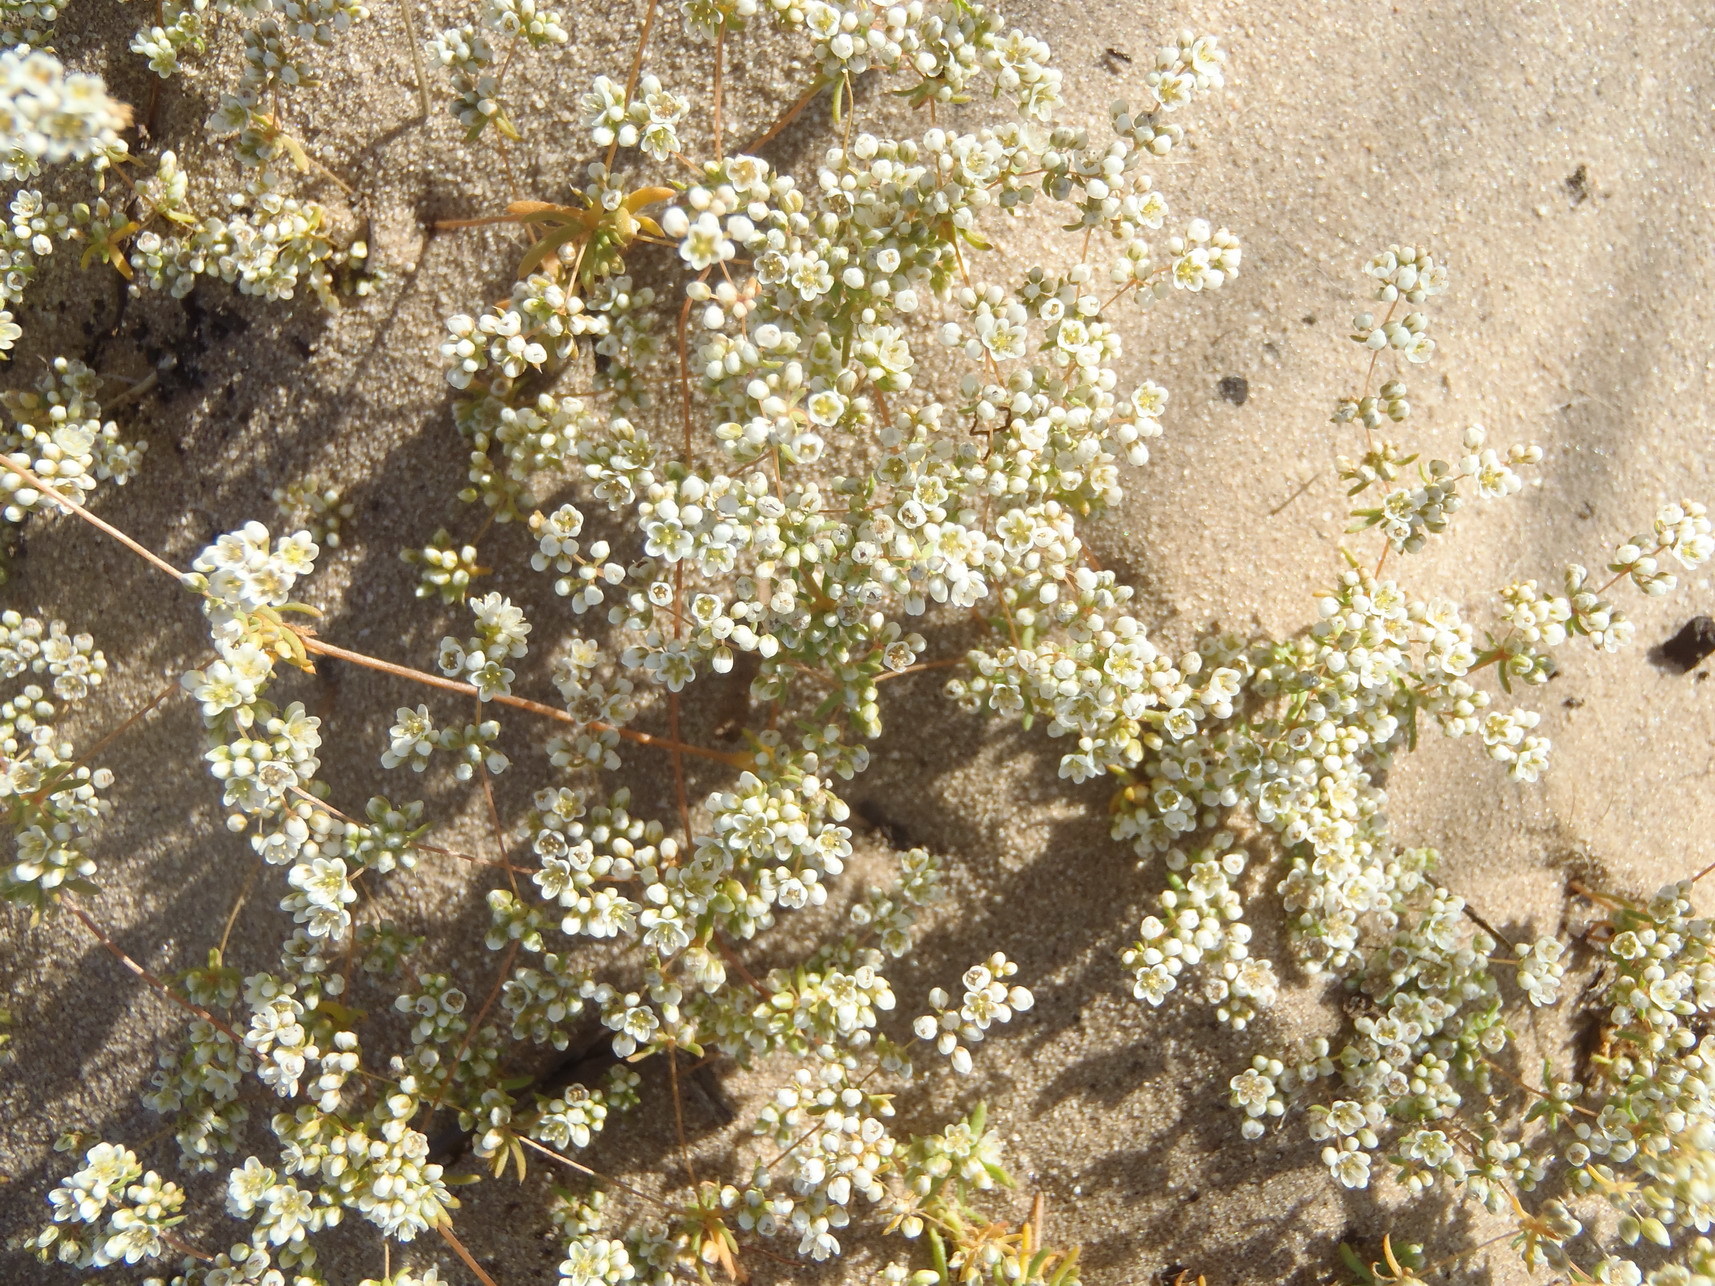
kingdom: Plantae
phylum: Tracheophyta
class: Magnoliopsida
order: Caryophyllales
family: Molluginaceae
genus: Adenogramma
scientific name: Adenogramma glomerata
